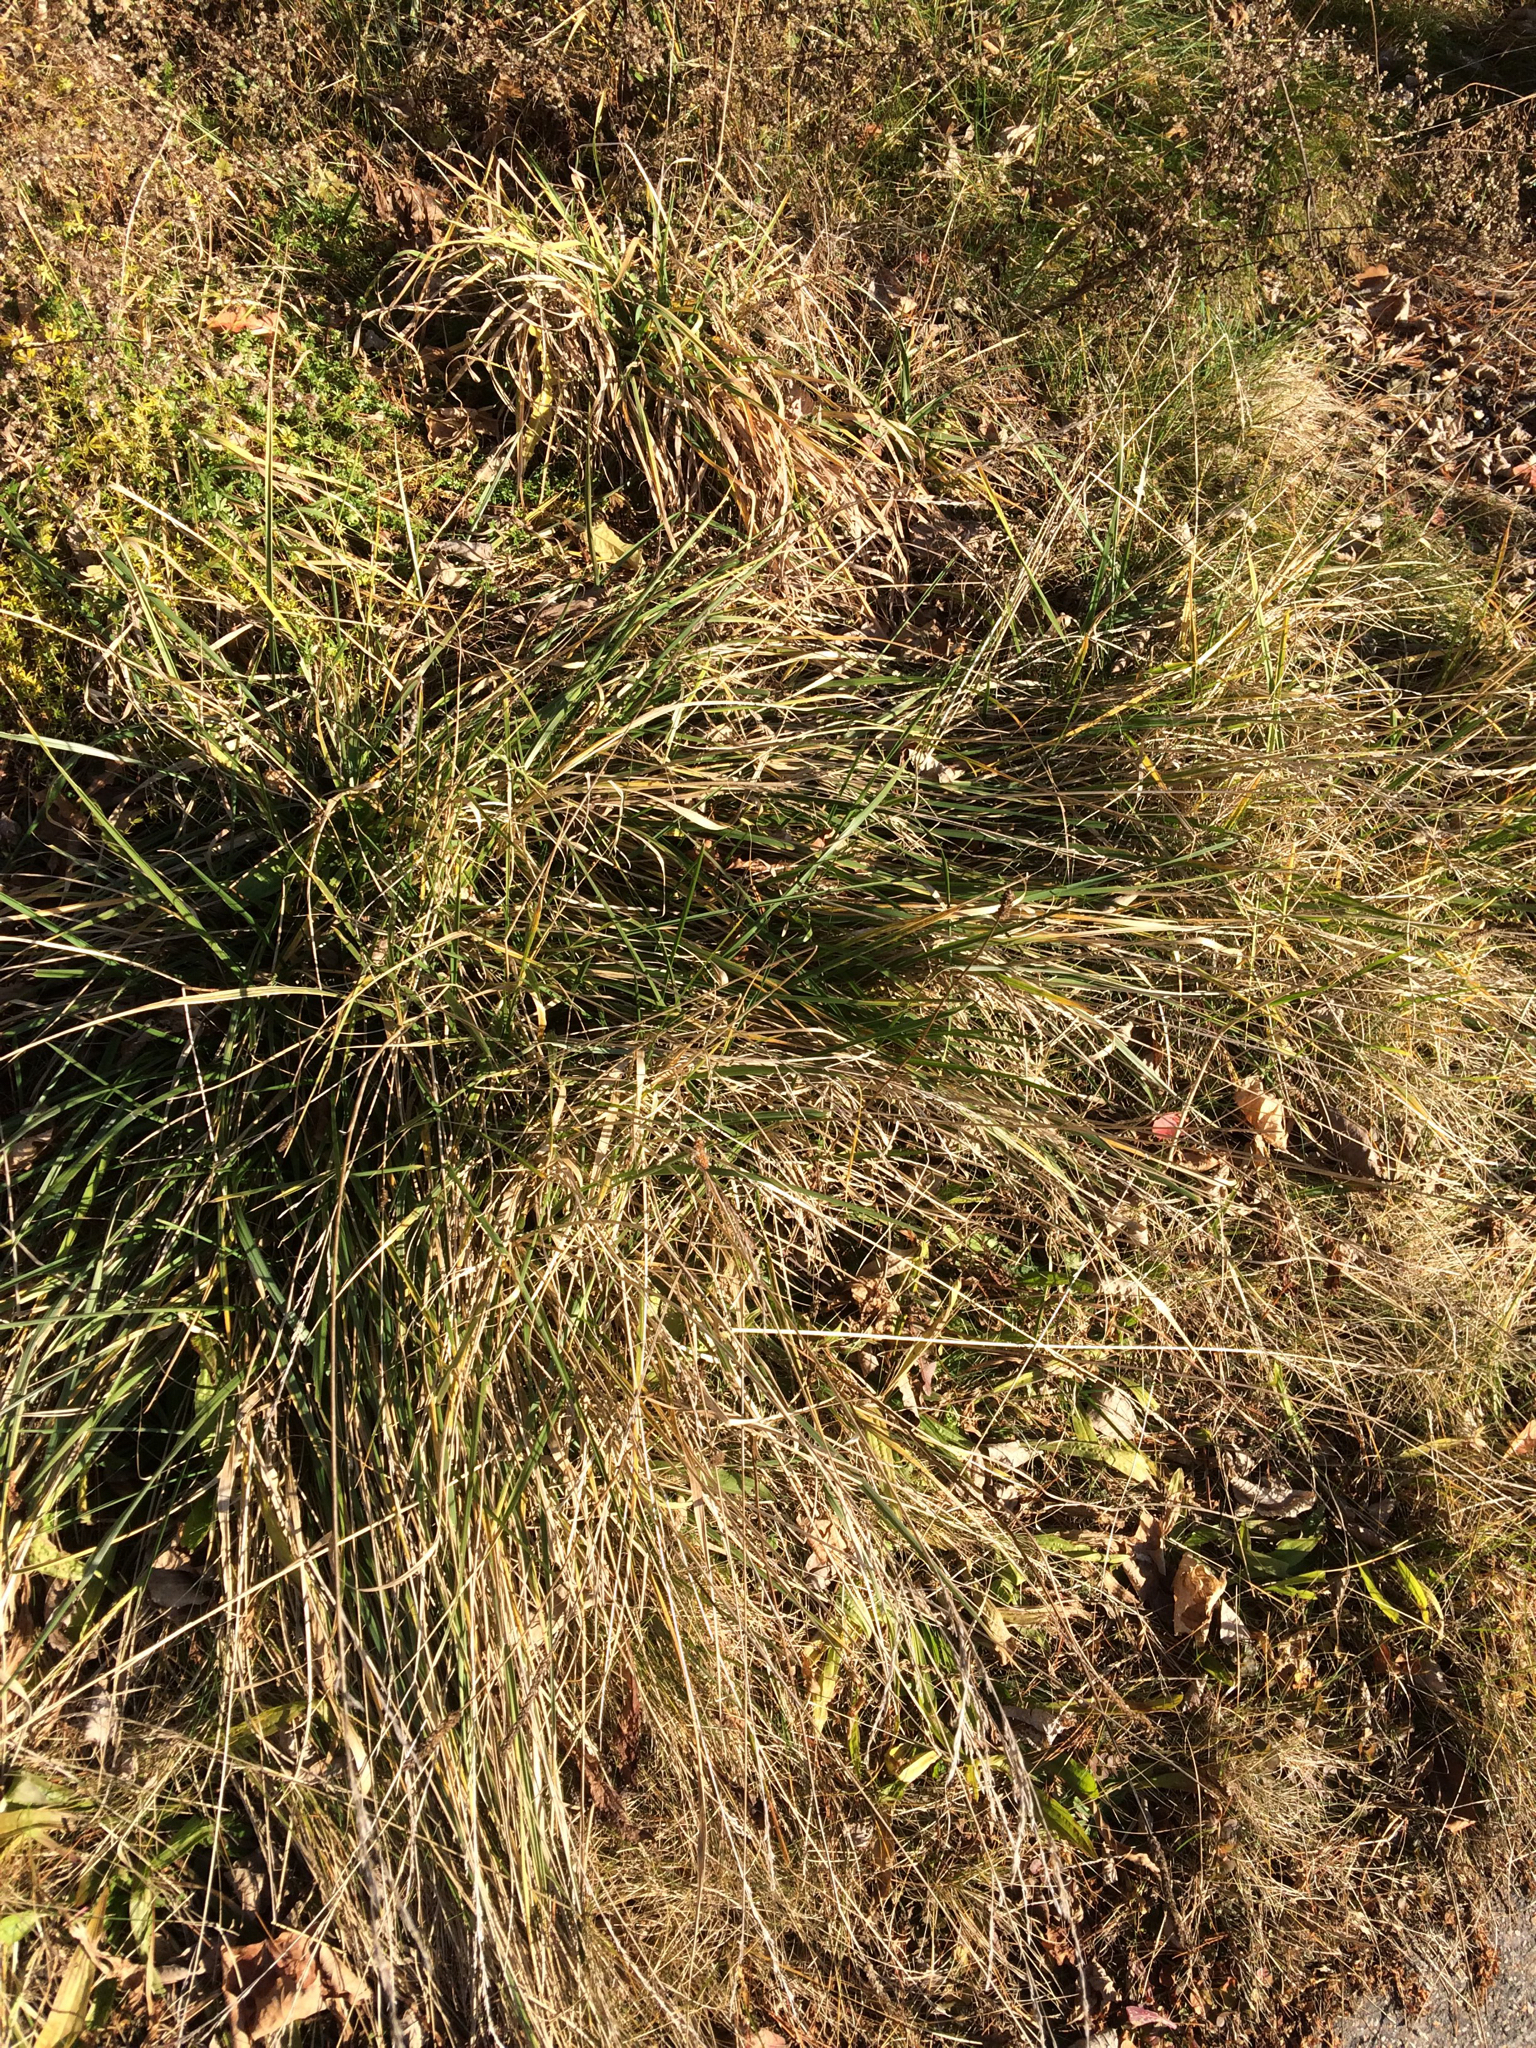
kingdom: Plantae
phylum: Tracheophyta
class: Liliopsida
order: Poales
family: Poaceae
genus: Dactylis
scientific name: Dactylis glomerata
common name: Orchardgrass
